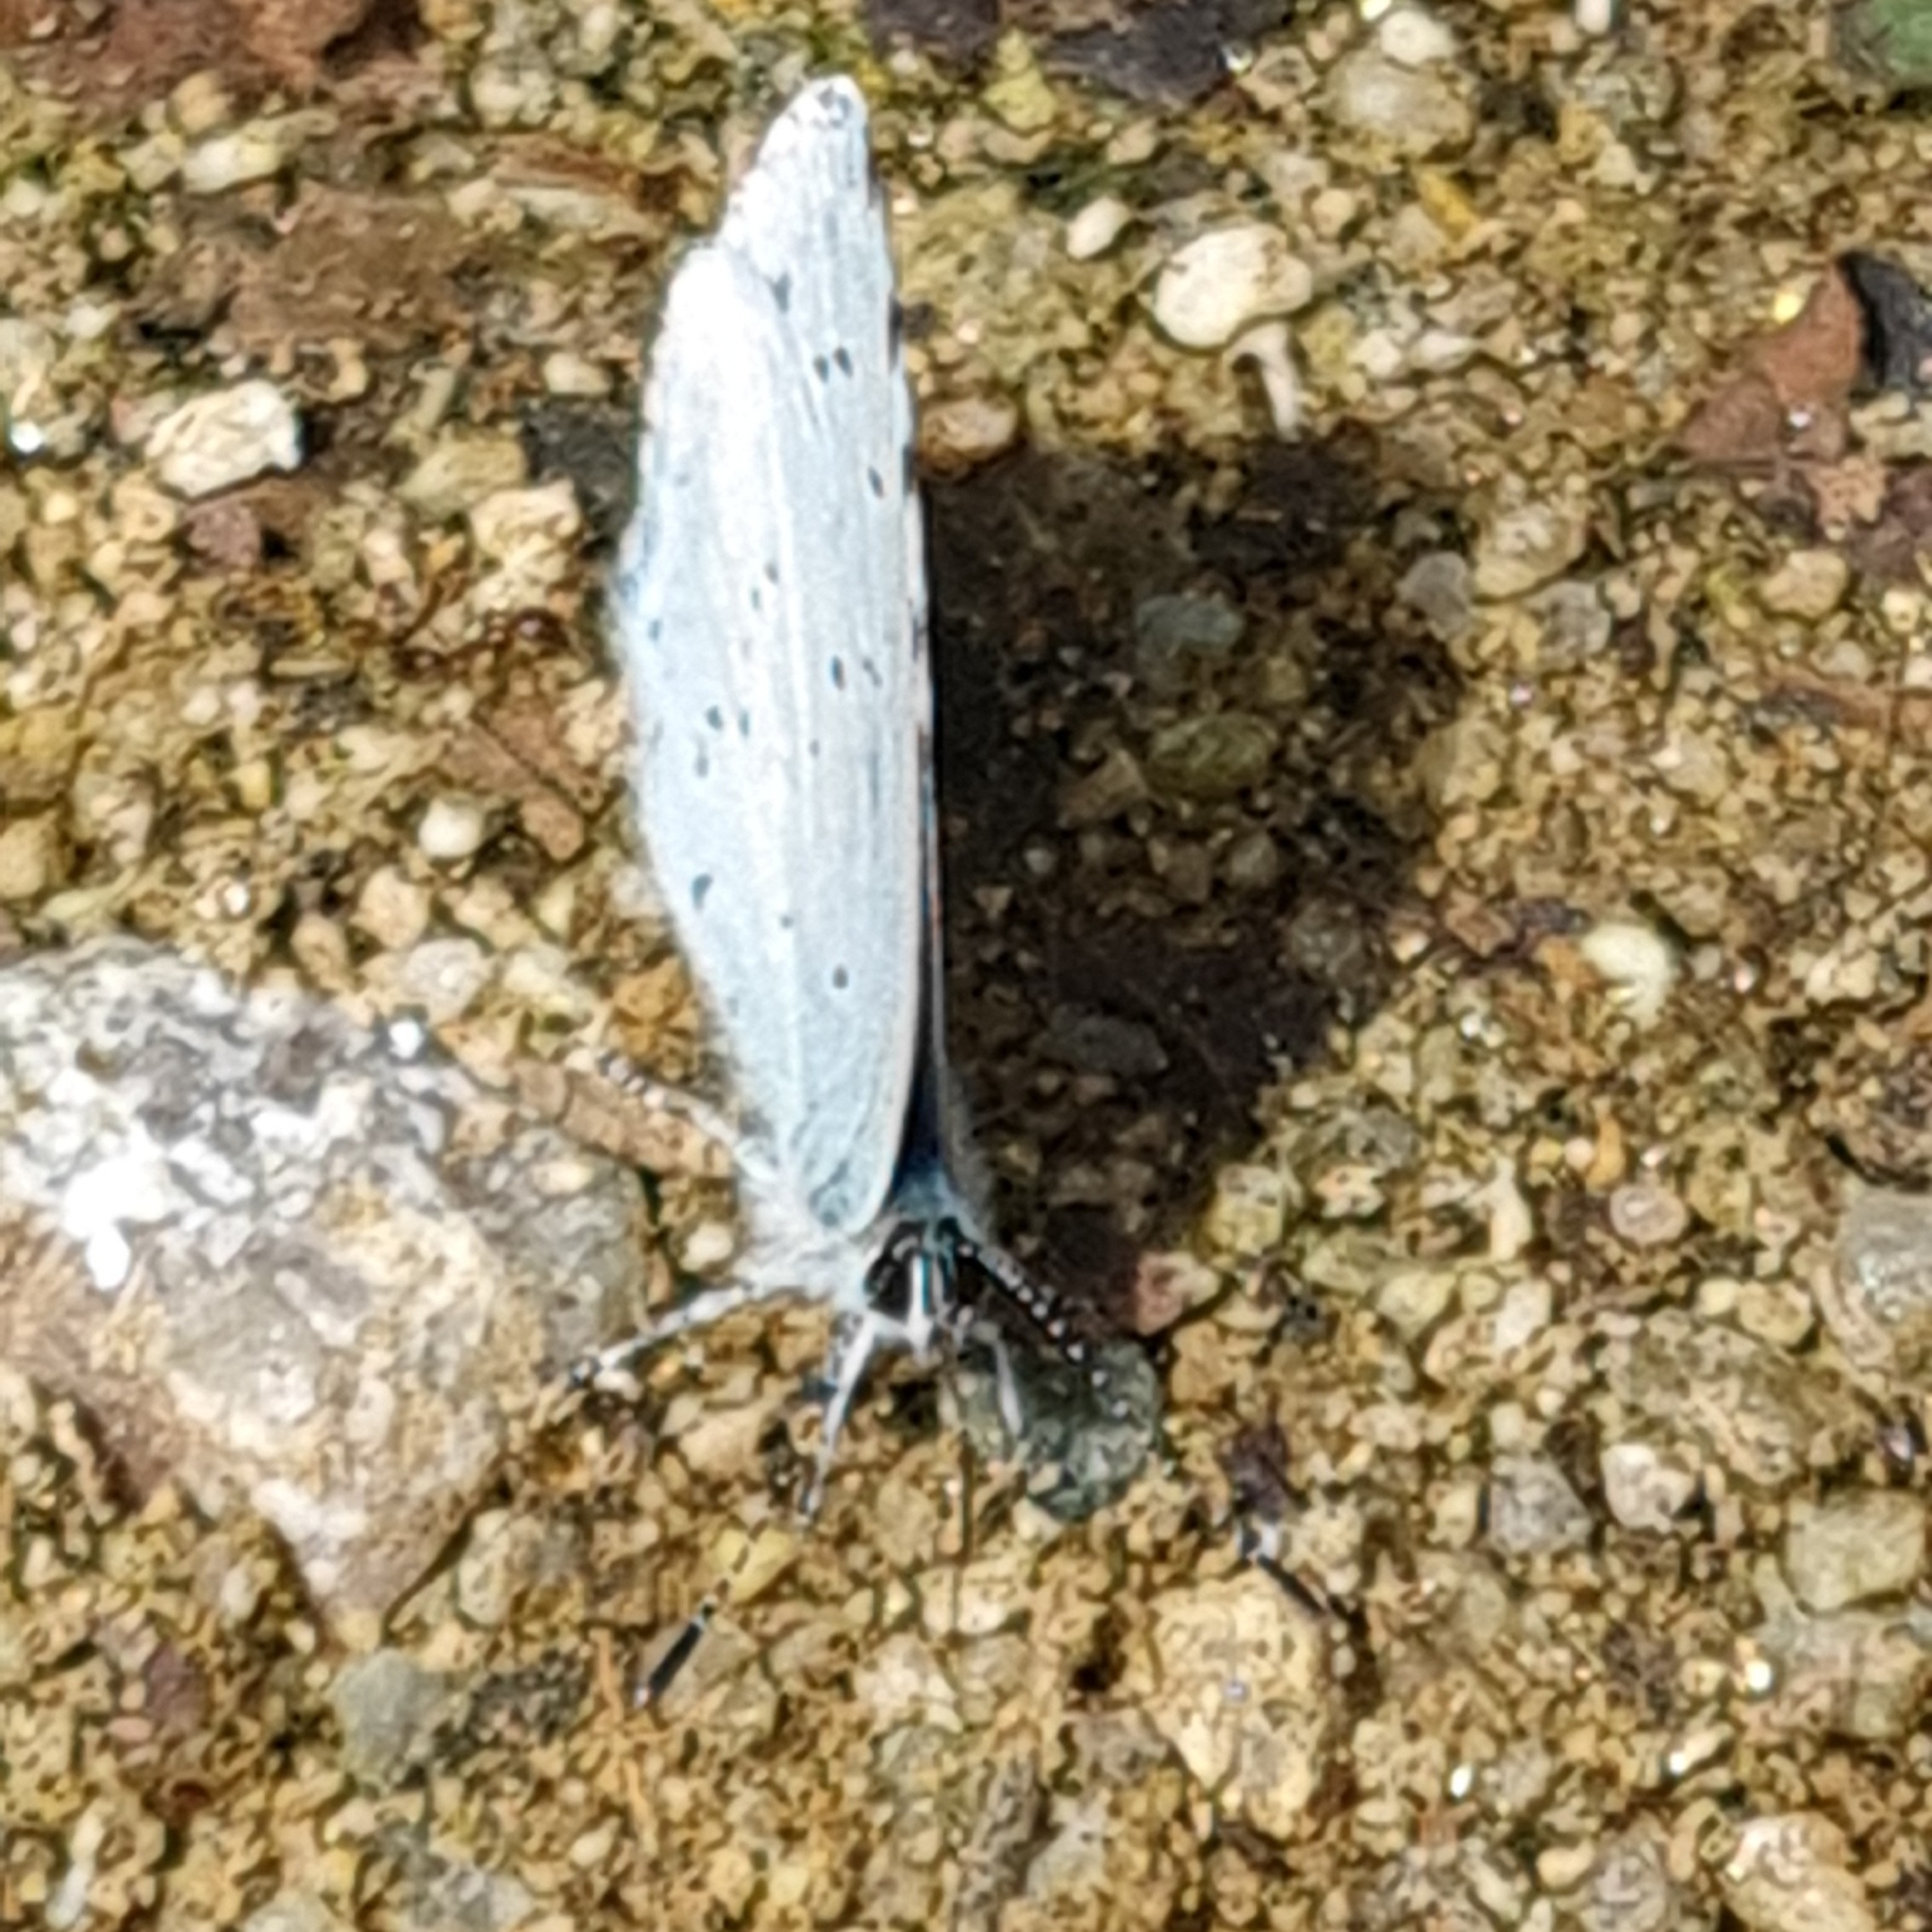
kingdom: Animalia
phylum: Arthropoda
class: Insecta
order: Lepidoptera
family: Lycaenidae
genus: Celastrina
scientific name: Celastrina argiolus
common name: Holly blue
